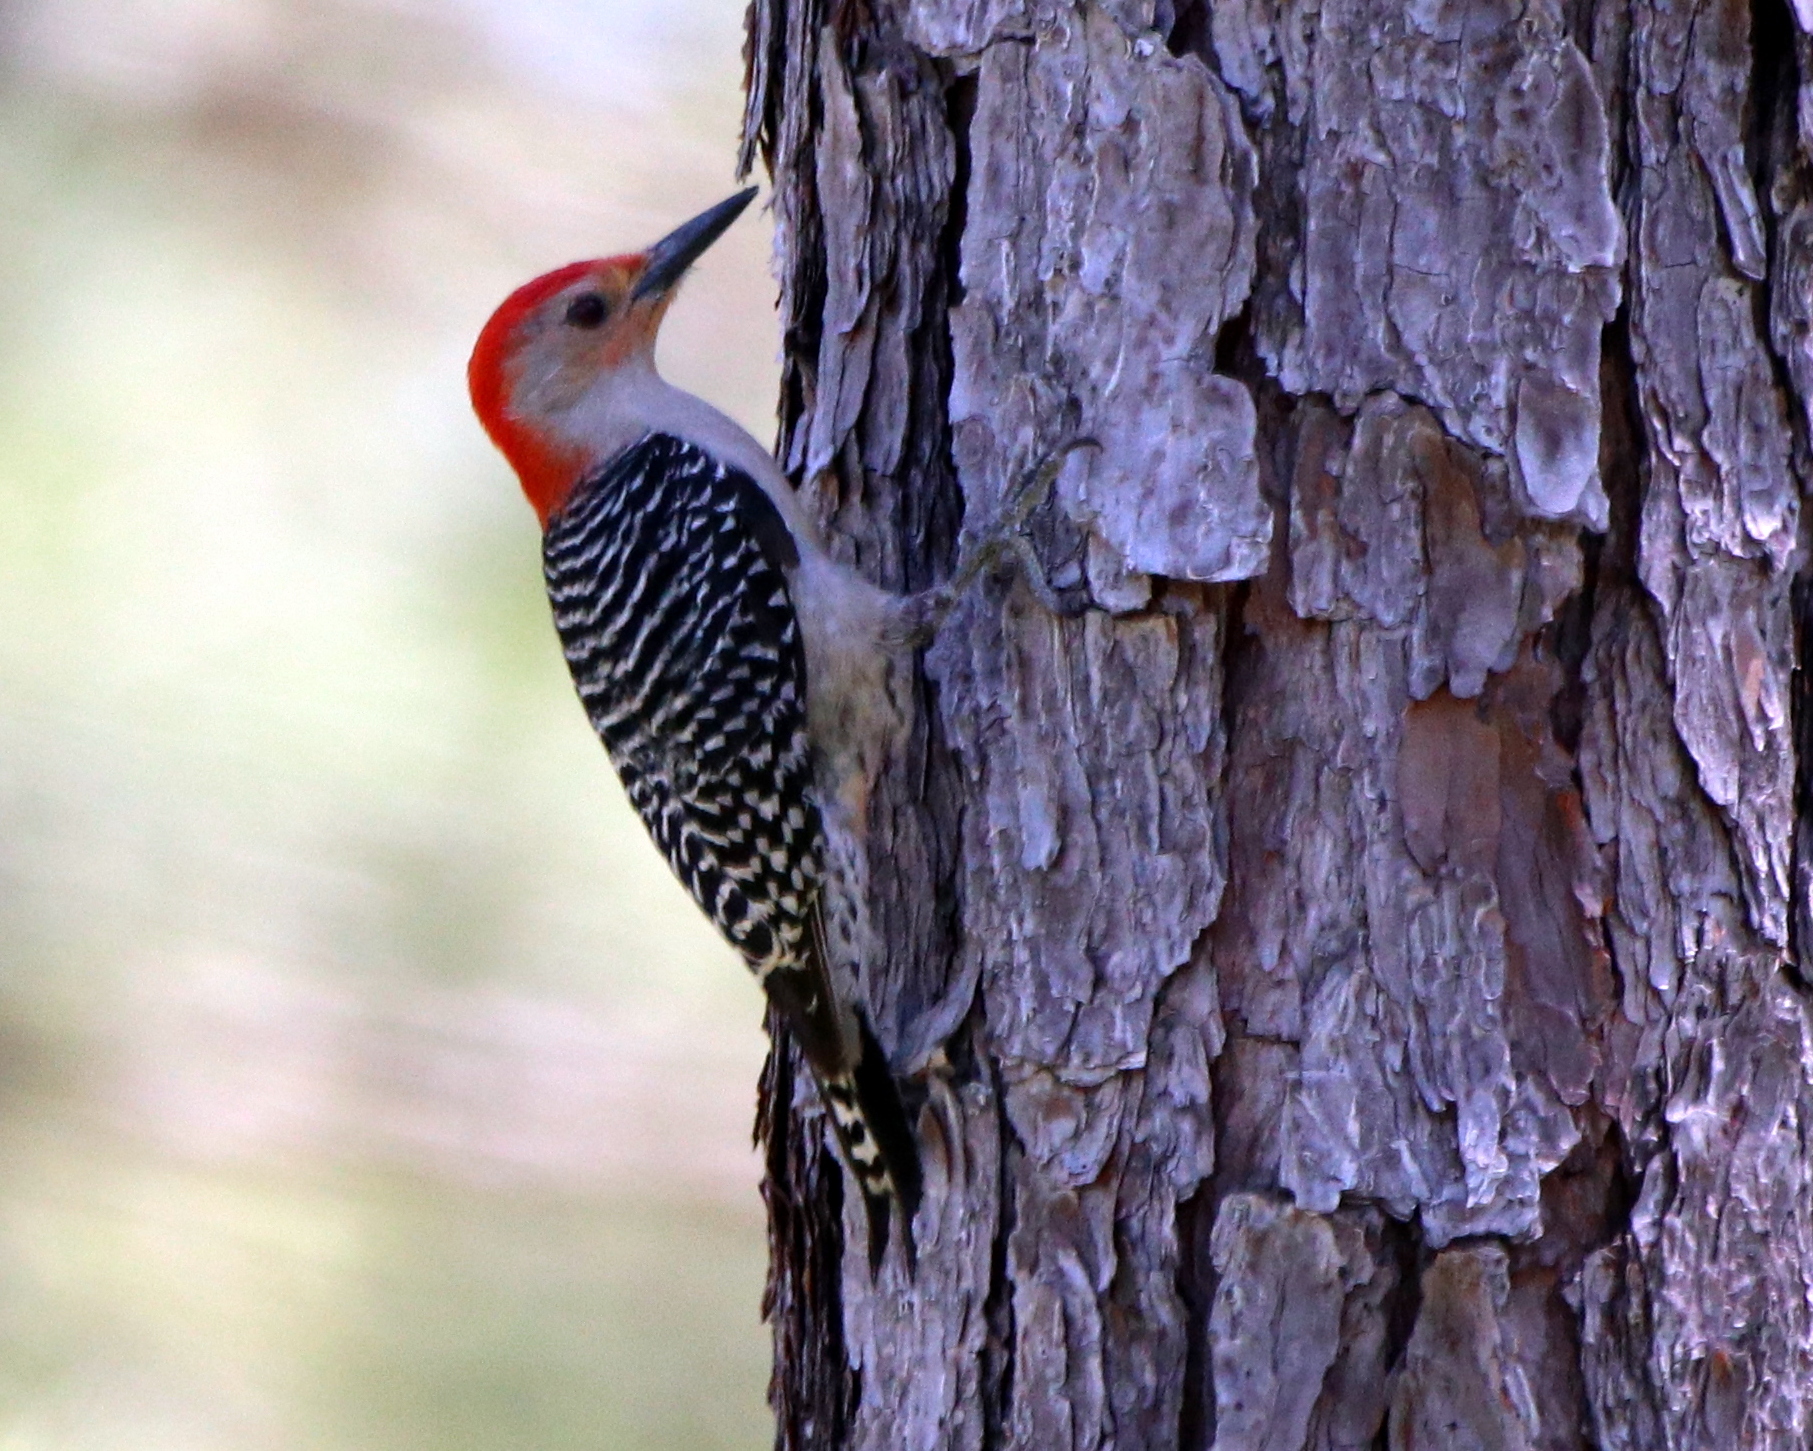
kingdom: Animalia
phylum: Chordata
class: Aves
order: Piciformes
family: Picidae
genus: Melanerpes
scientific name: Melanerpes carolinus
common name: Red-bellied woodpecker
